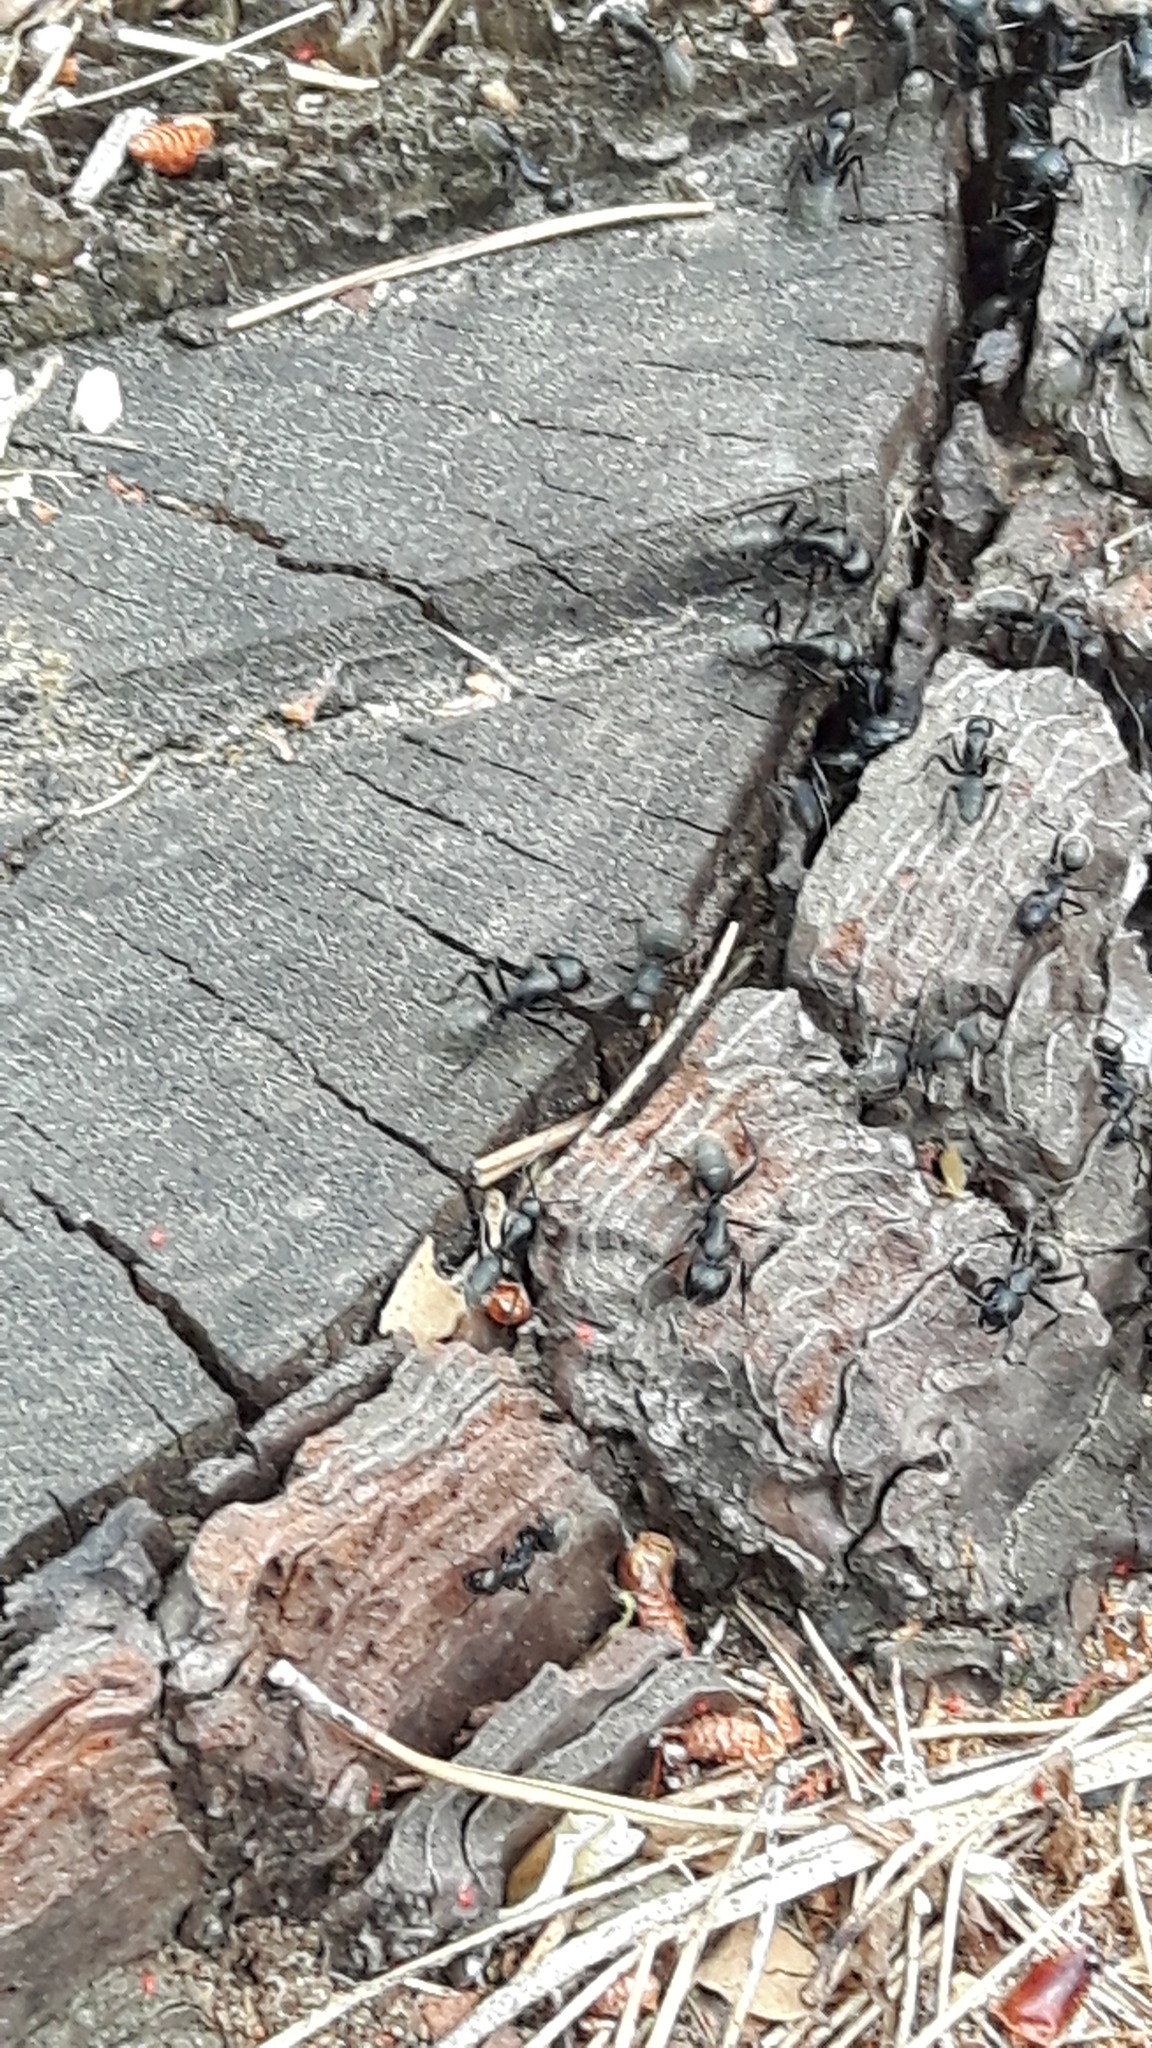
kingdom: Animalia
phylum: Arthropoda
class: Insecta
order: Hymenoptera
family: Formicidae
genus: Camponotus
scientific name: Camponotus vagus
